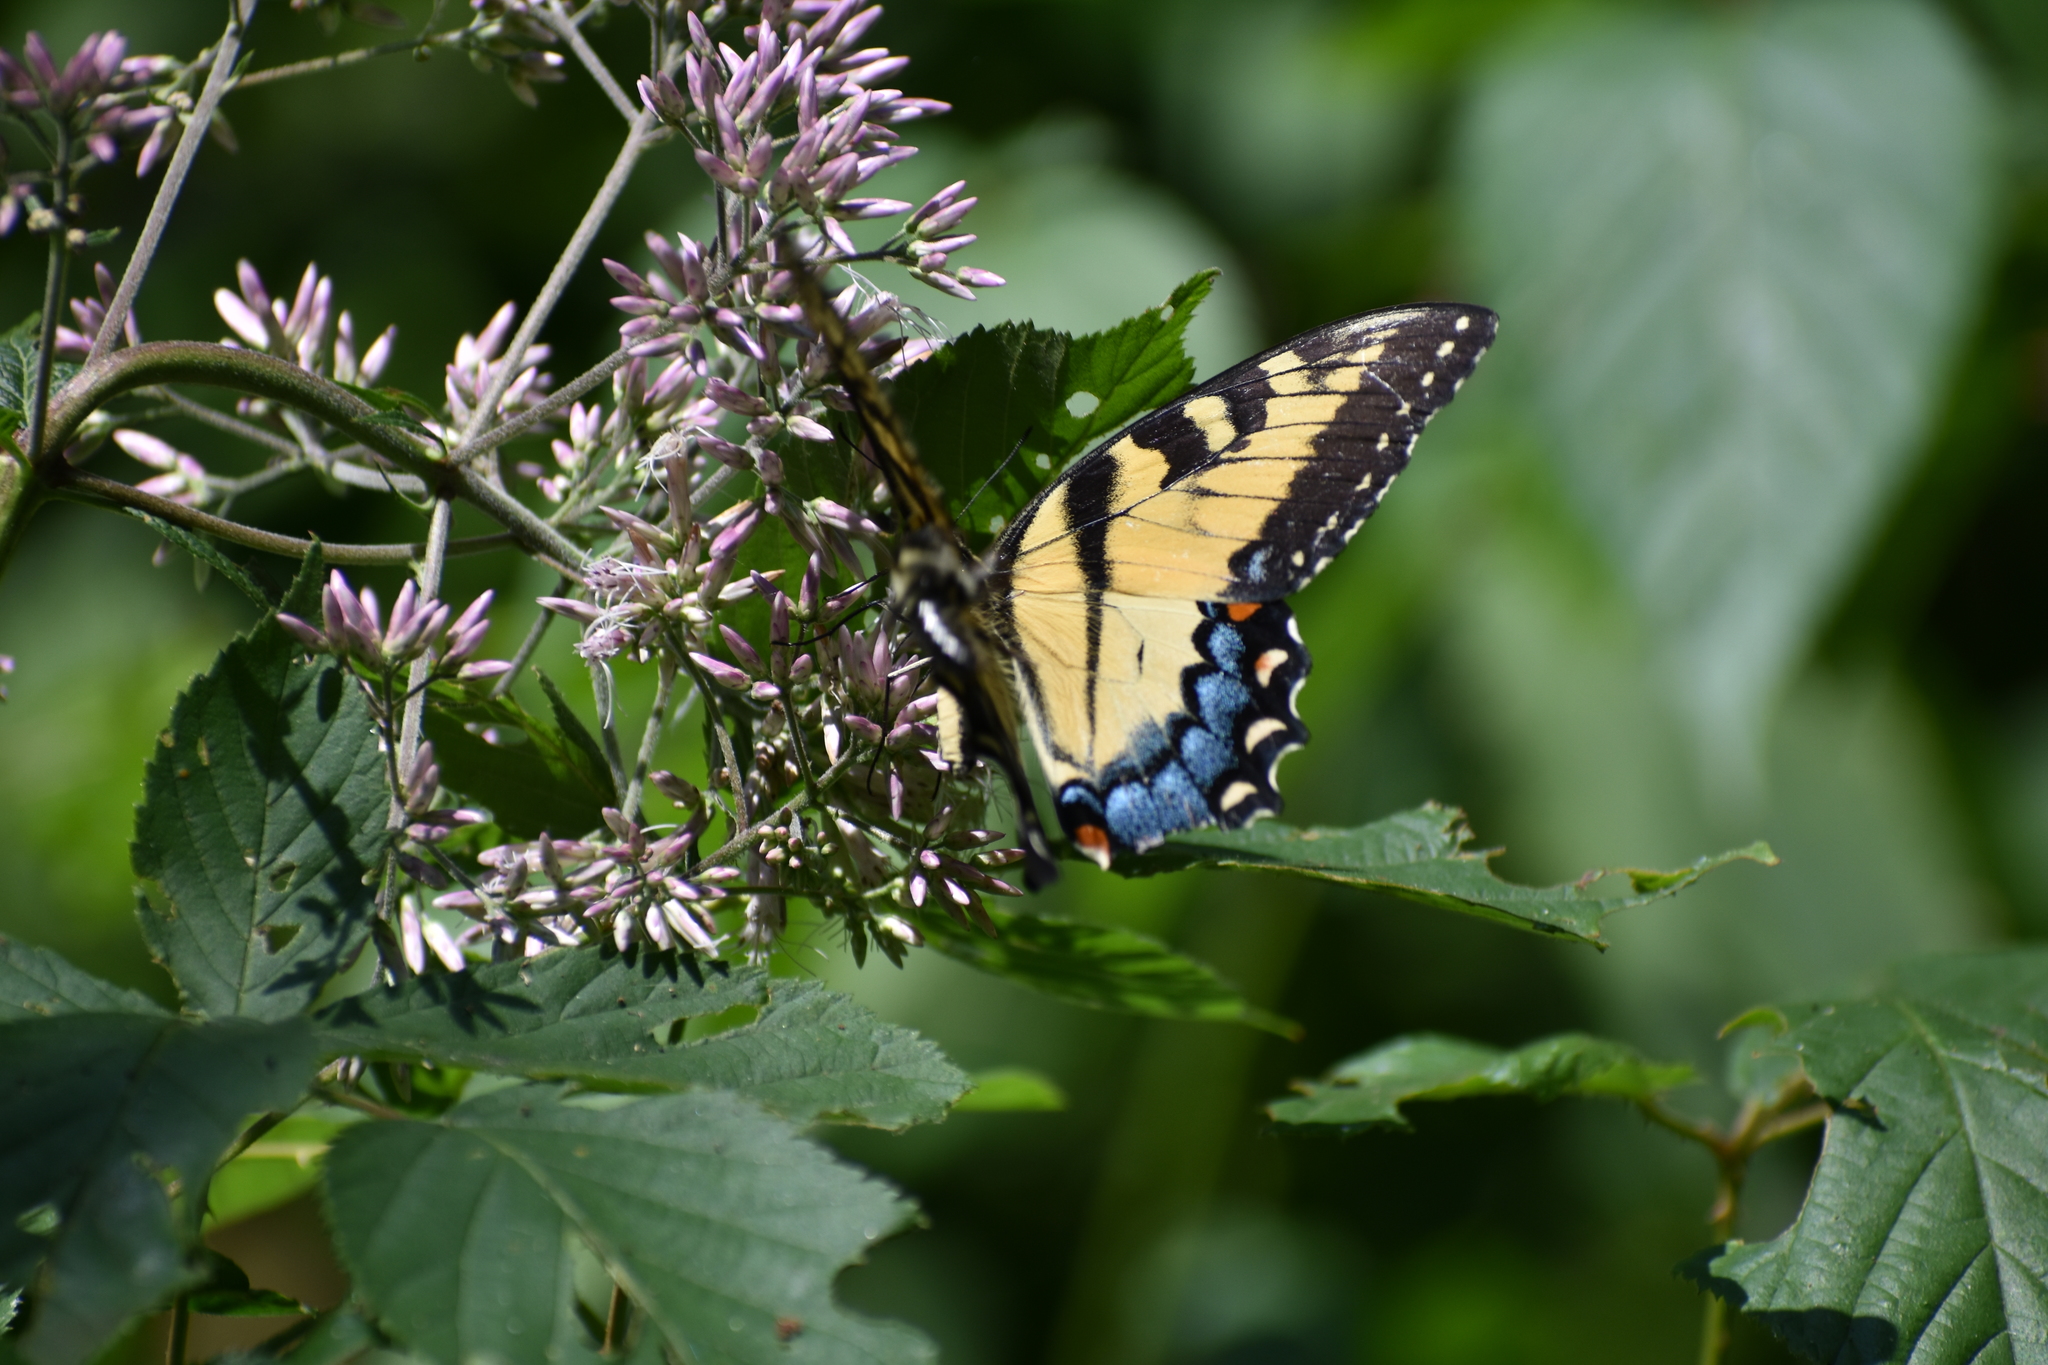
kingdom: Animalia
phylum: Arthropoda
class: Insecta
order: Lepidoptera
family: Papilionidae
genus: Papilio
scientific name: Papilio glaucus
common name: Tiger swallowtail
